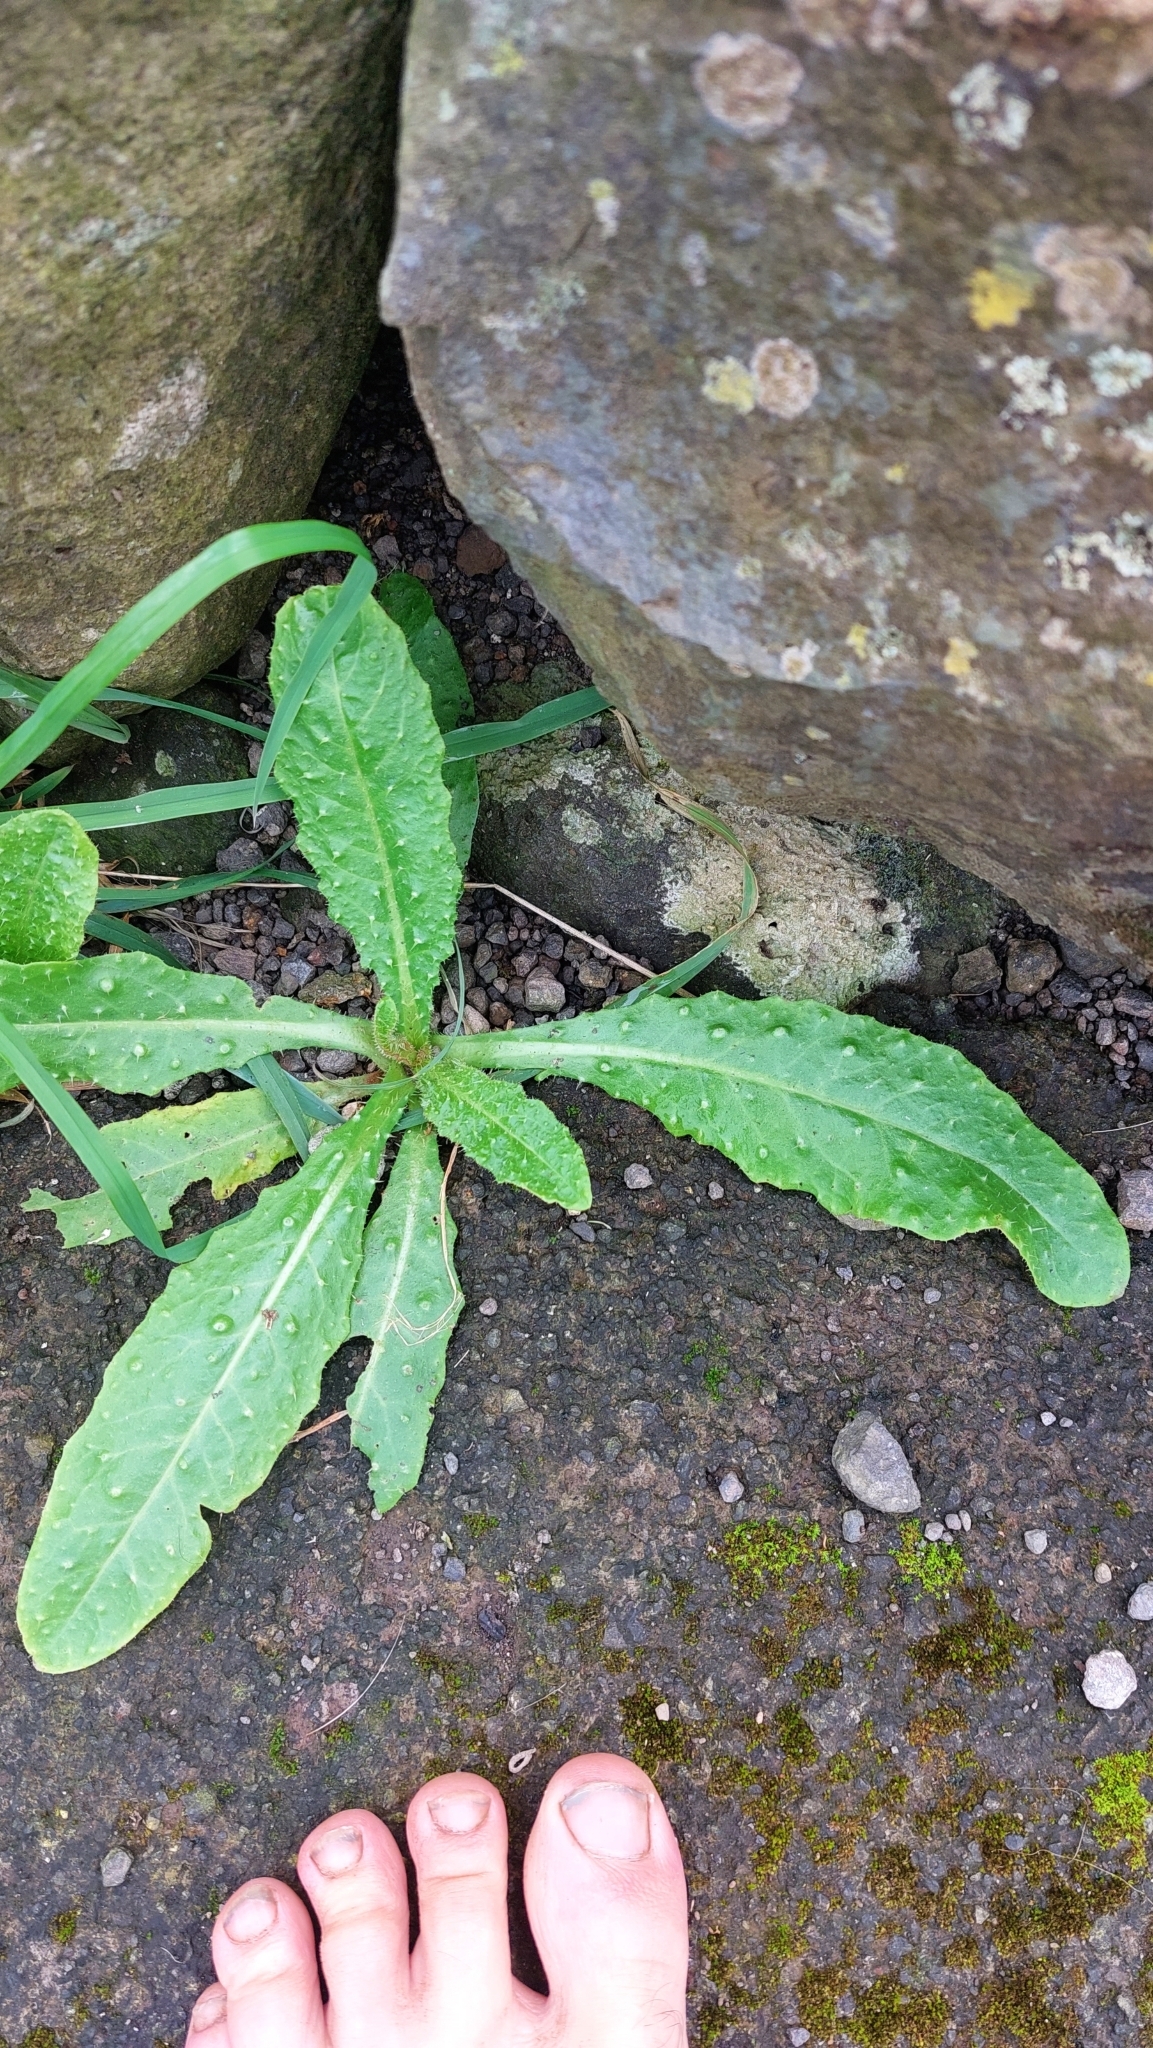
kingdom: Plantae
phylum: Tracheophyta
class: Magnoliopsida
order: Asterales
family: Asteraceae
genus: Helminthotheca
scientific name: Helminthotheca echioides
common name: Ox-tongue
